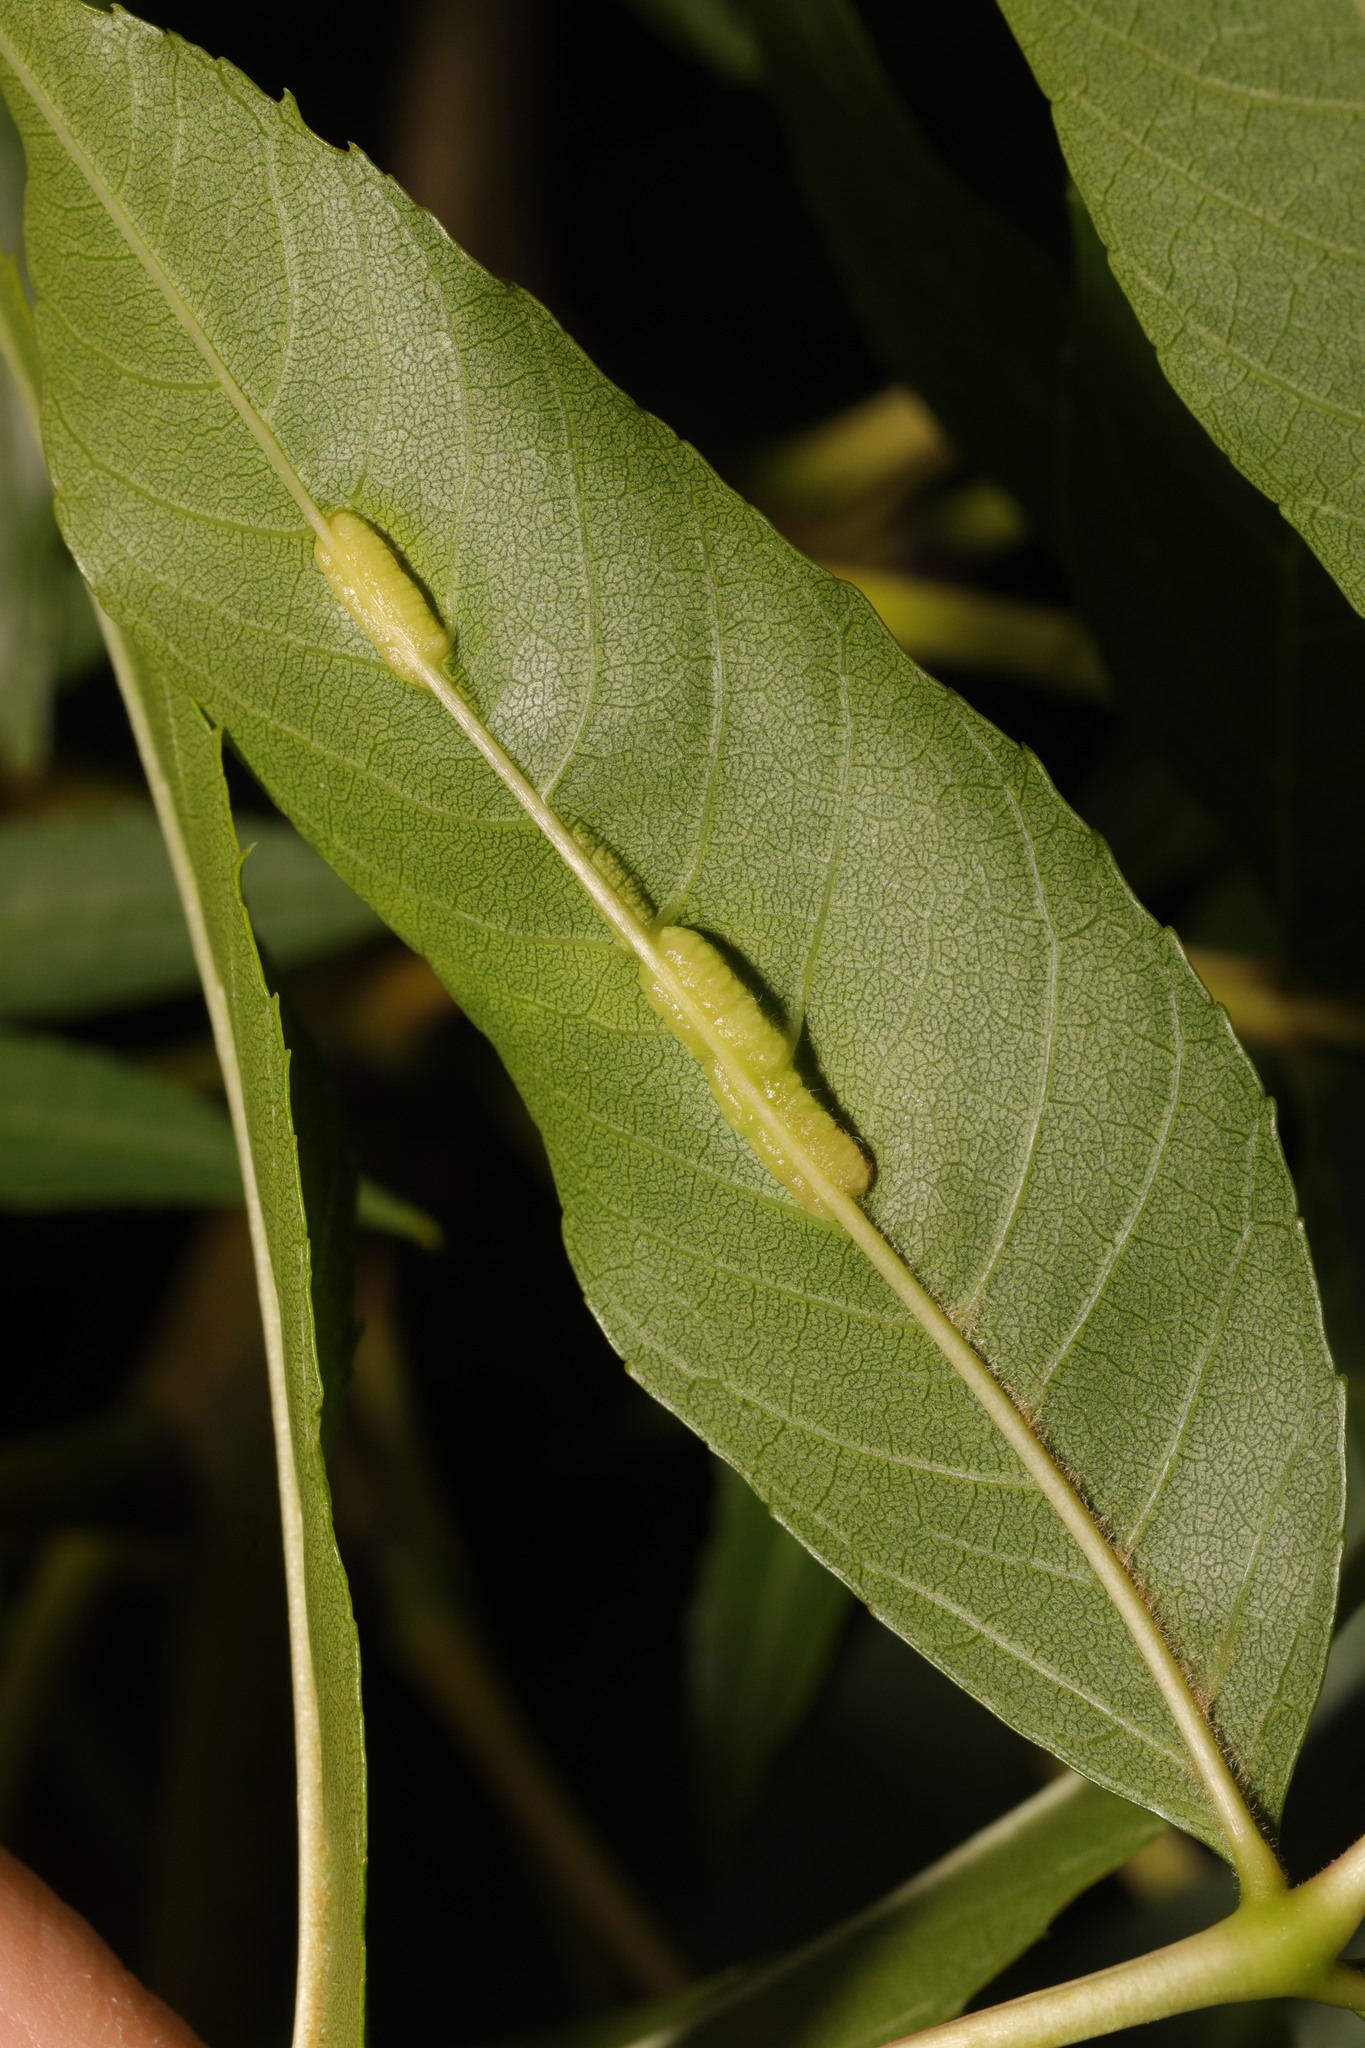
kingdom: Animalia
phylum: Arthropoda
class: Insecta
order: Diptera
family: Cecidomyiidae
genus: Dasineura
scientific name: Dasineura fraxini
